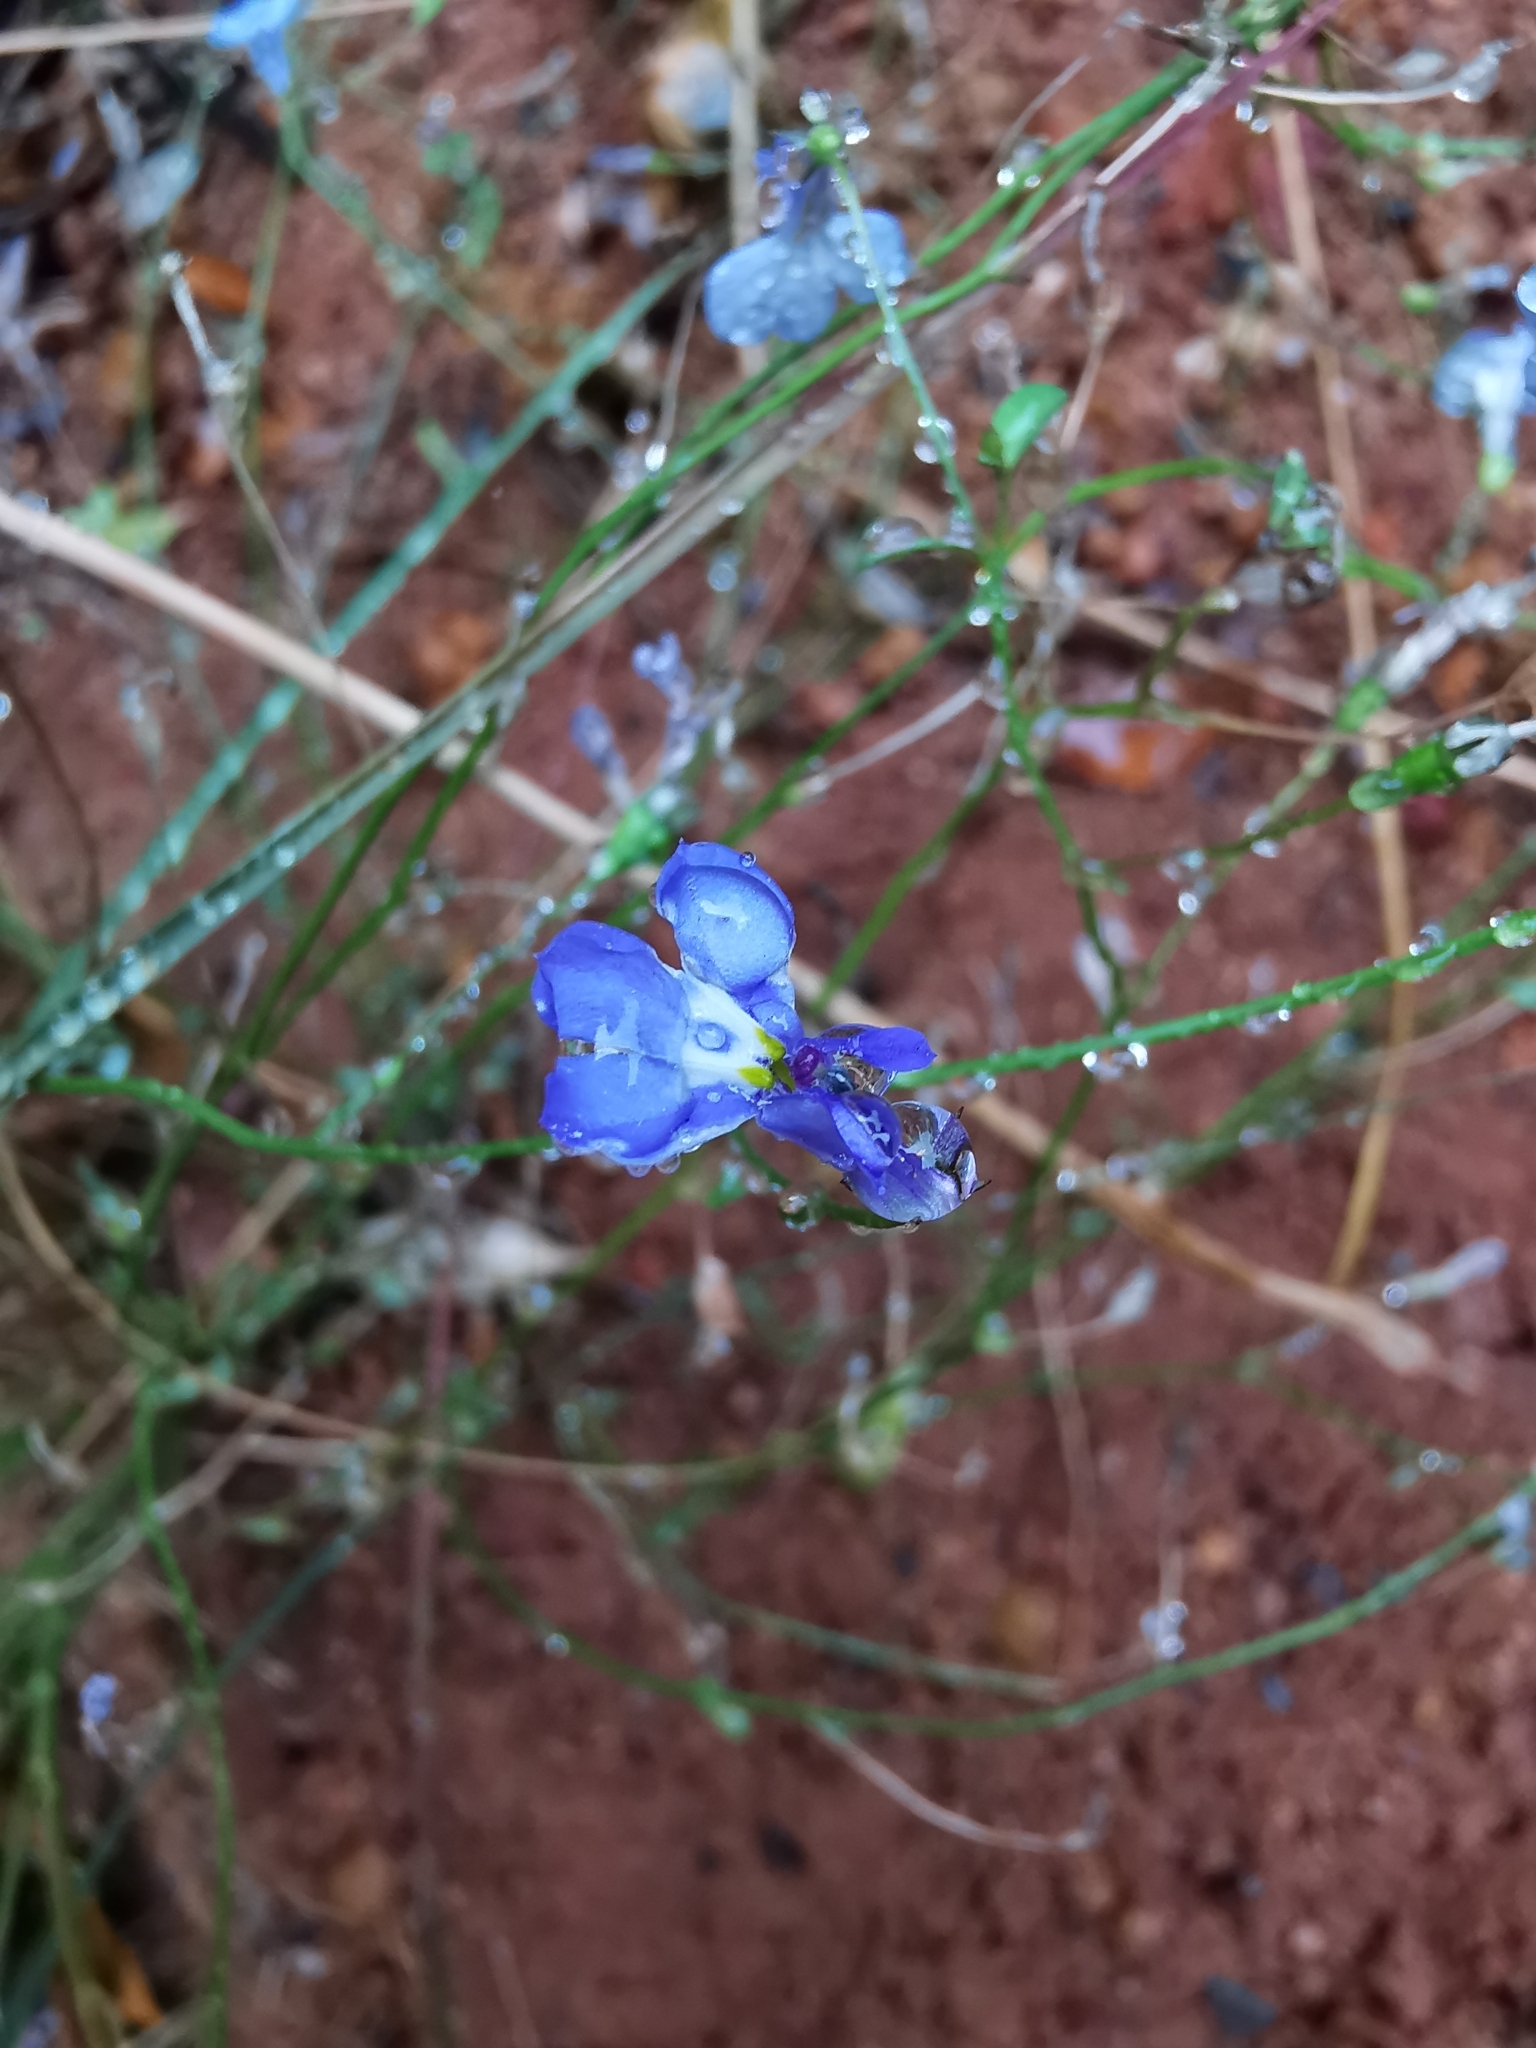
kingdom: Plantae
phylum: Tracheophyta
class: Magnoliopsida
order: Asterales
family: Campanulaceae
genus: Lobelia
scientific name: Lobelia erinus
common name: Edging lobelia
